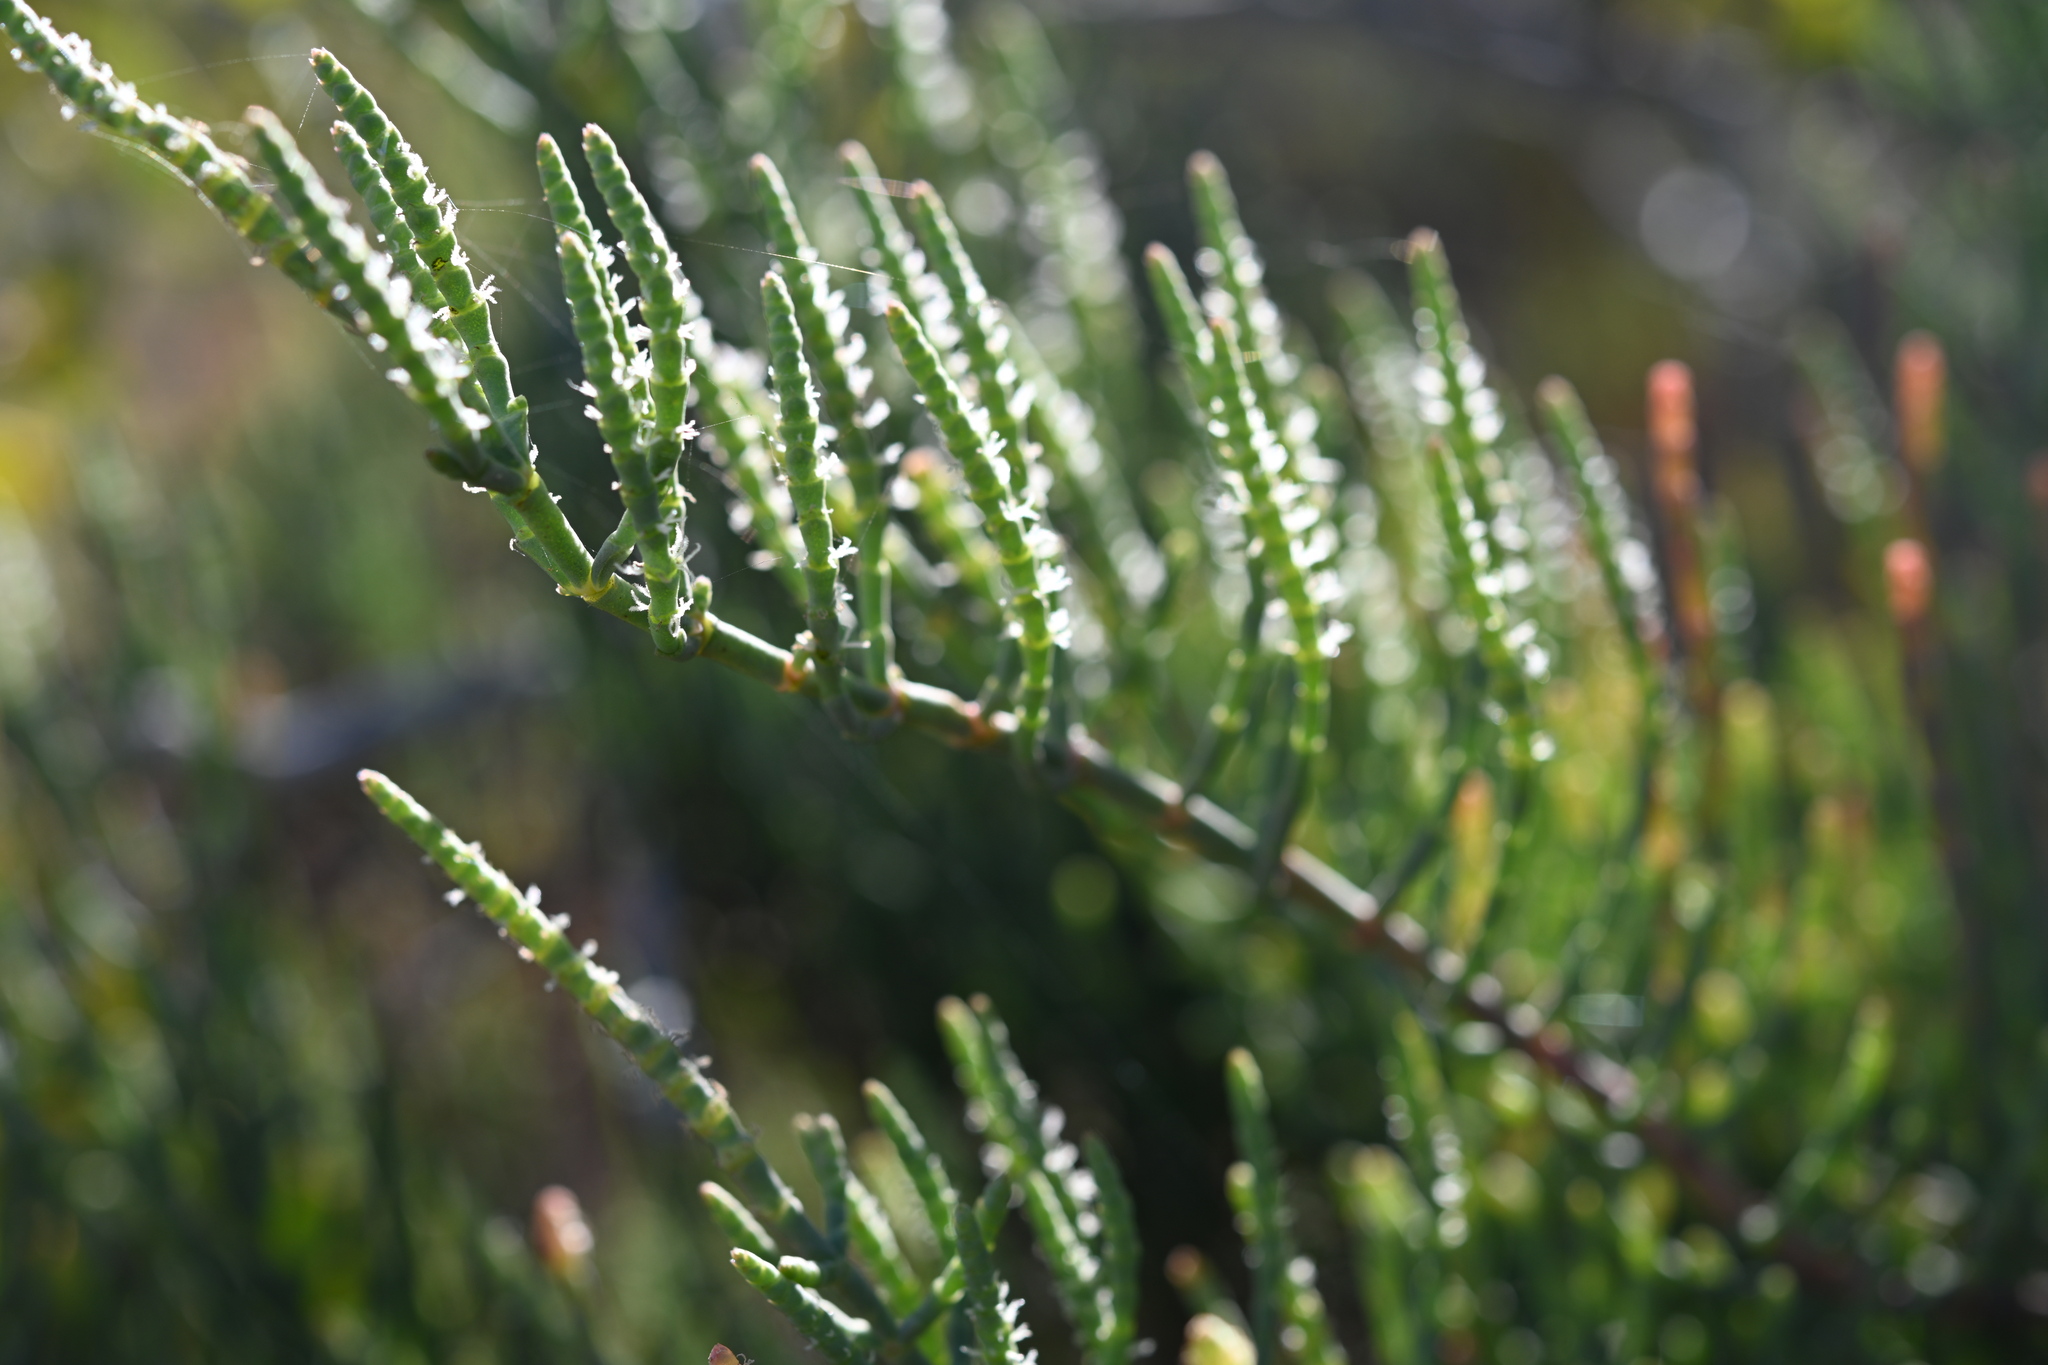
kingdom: Plantae
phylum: Tracheophyta
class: Magnoliopsida
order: Caryophyllales
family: Amaranthaceae
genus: Arthroceras
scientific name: Arthroceras subterminale
